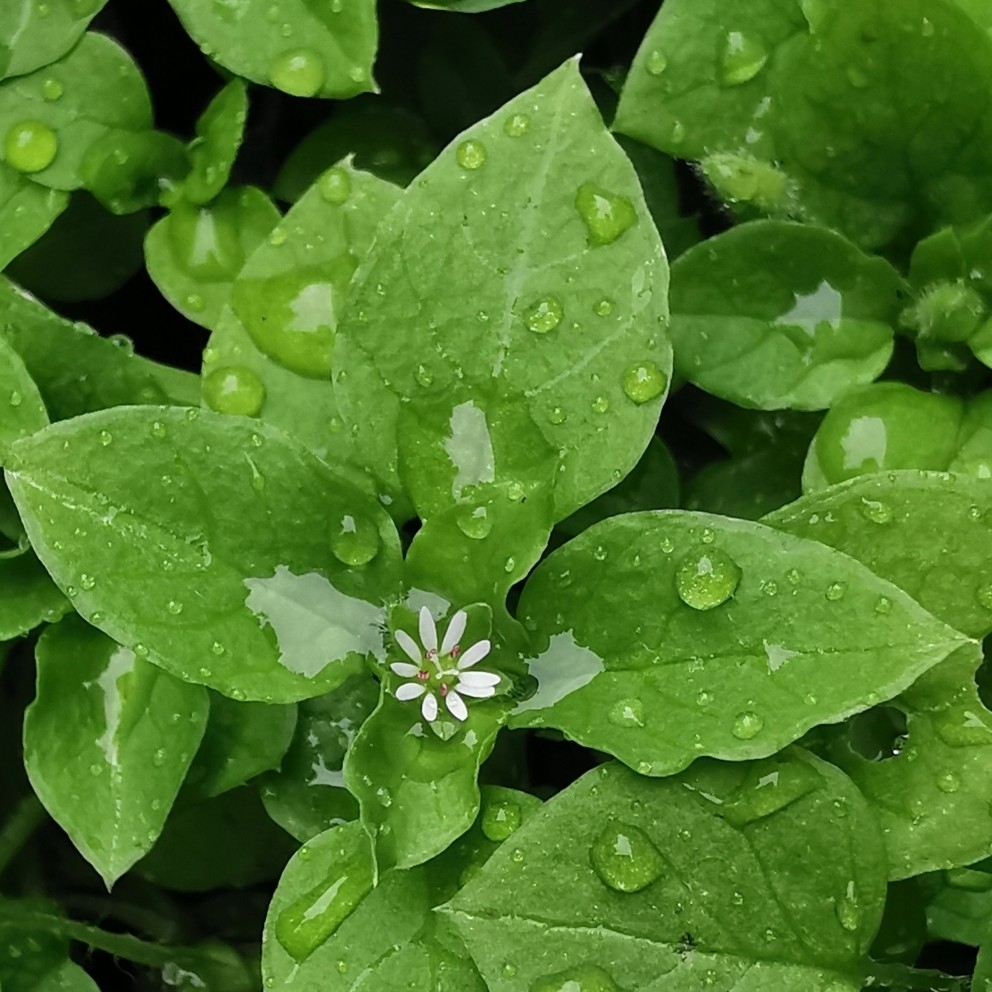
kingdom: Plantae
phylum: Tracheophyta
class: Magnoliopsida
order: Caryophyllales
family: Caryophyllaceae
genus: Stellaria
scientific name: Stellaria media
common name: Common chickweed
